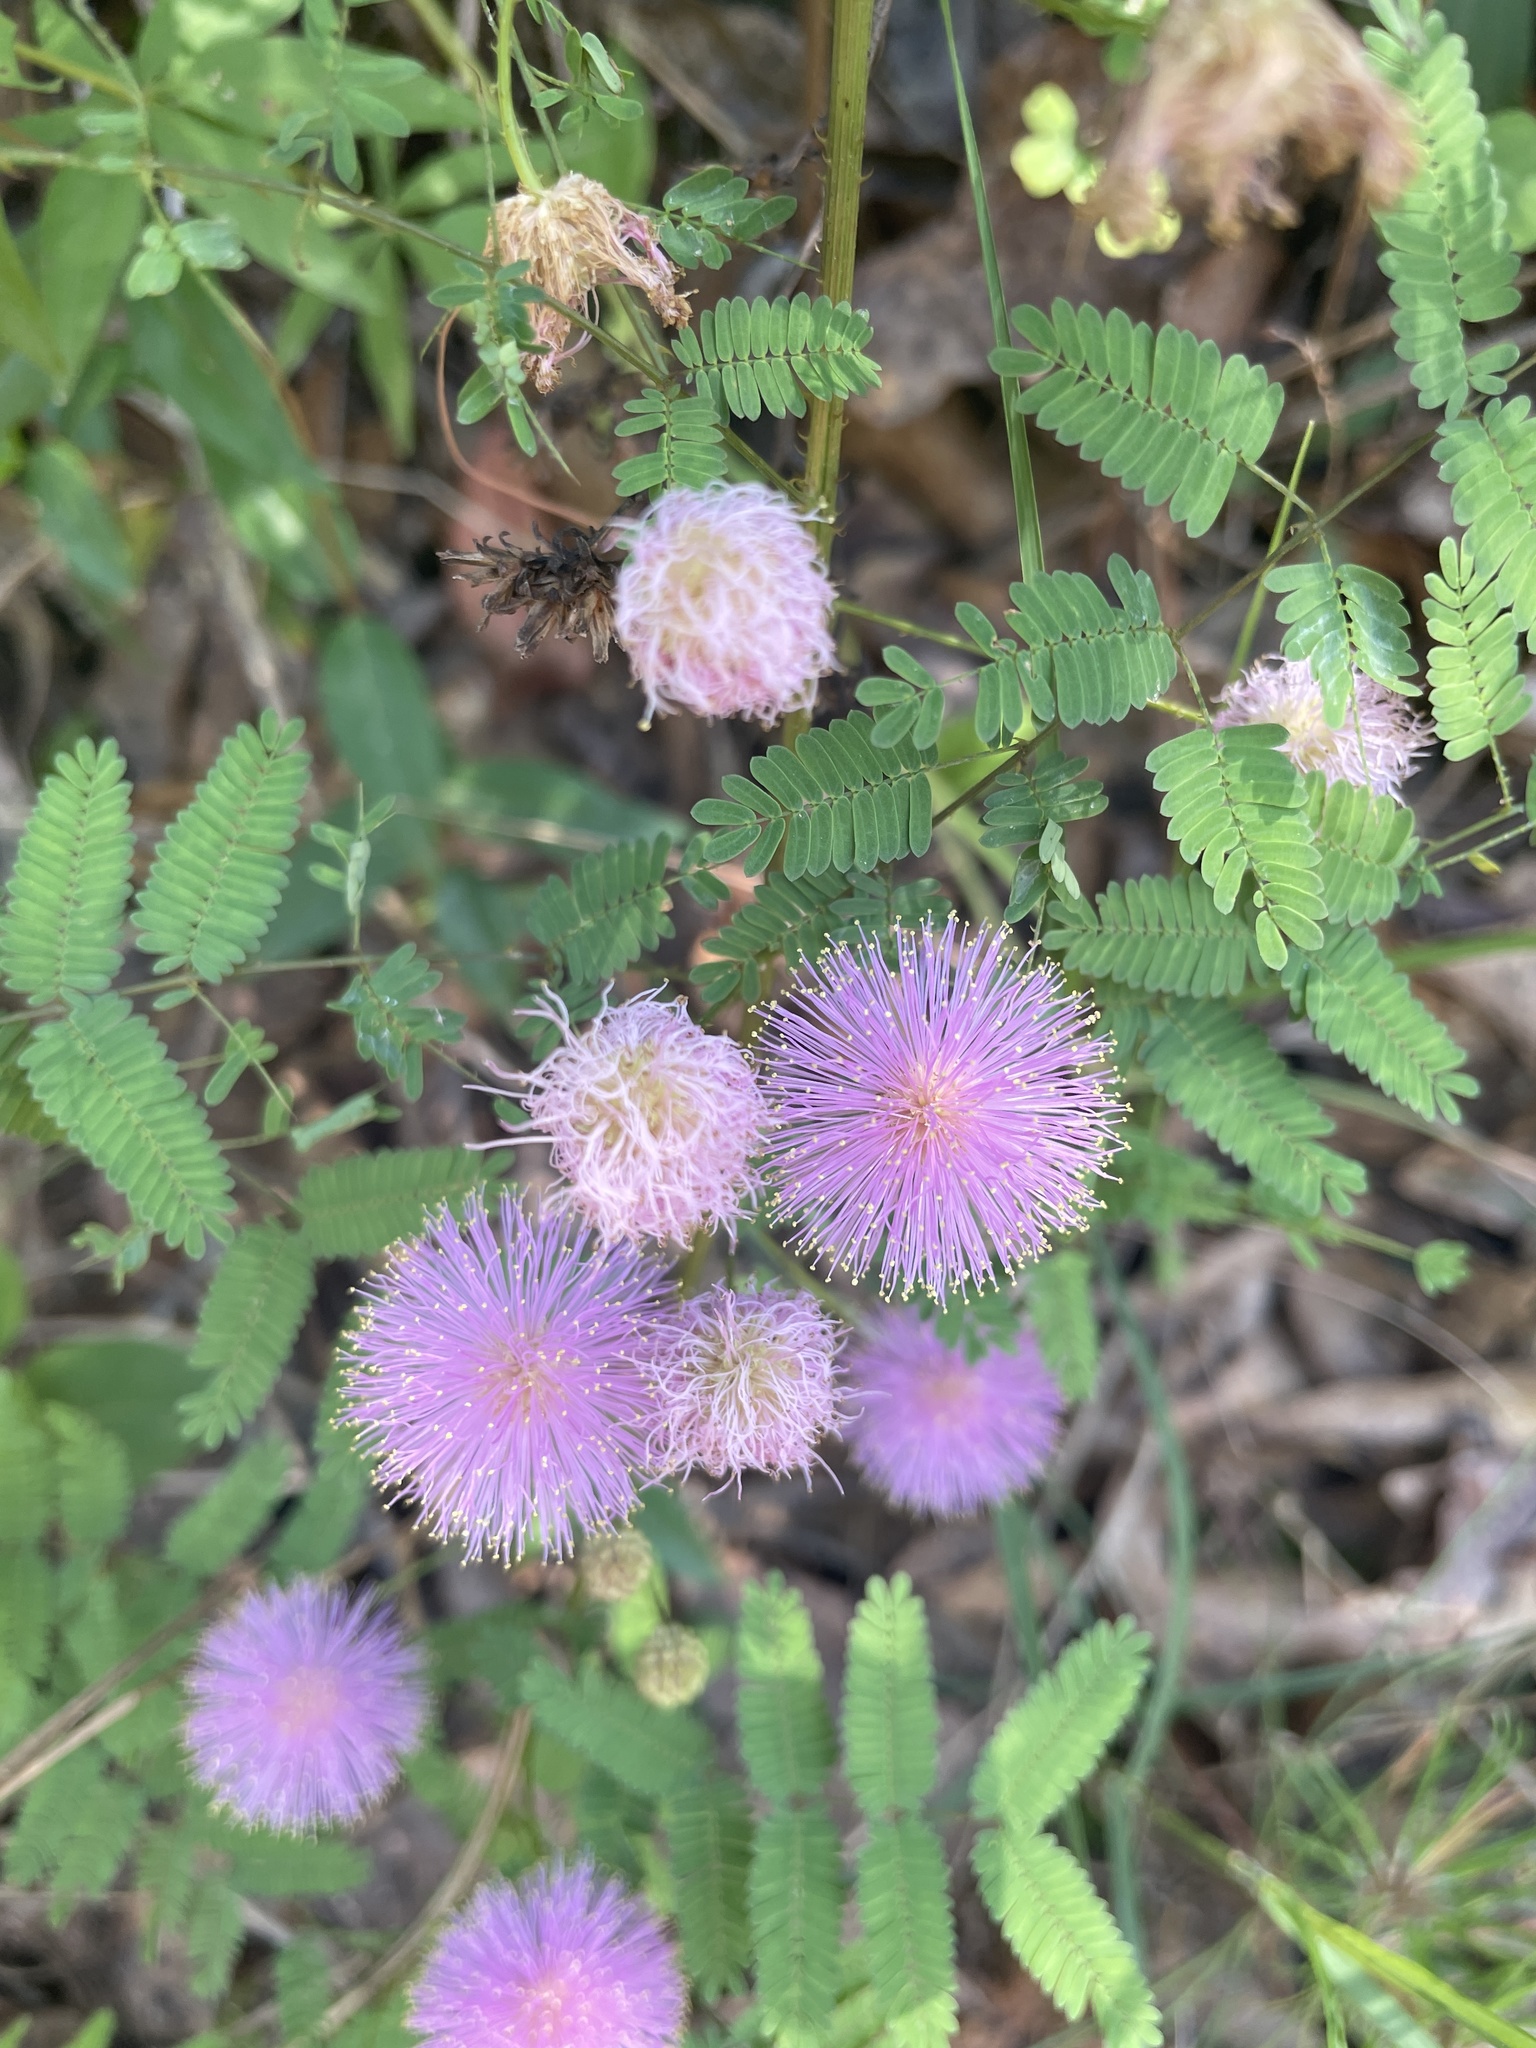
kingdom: Plantae
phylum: Tracheophyta
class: Magnoliopsida
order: Fabales
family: Fabaceae
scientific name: Fabaceae
